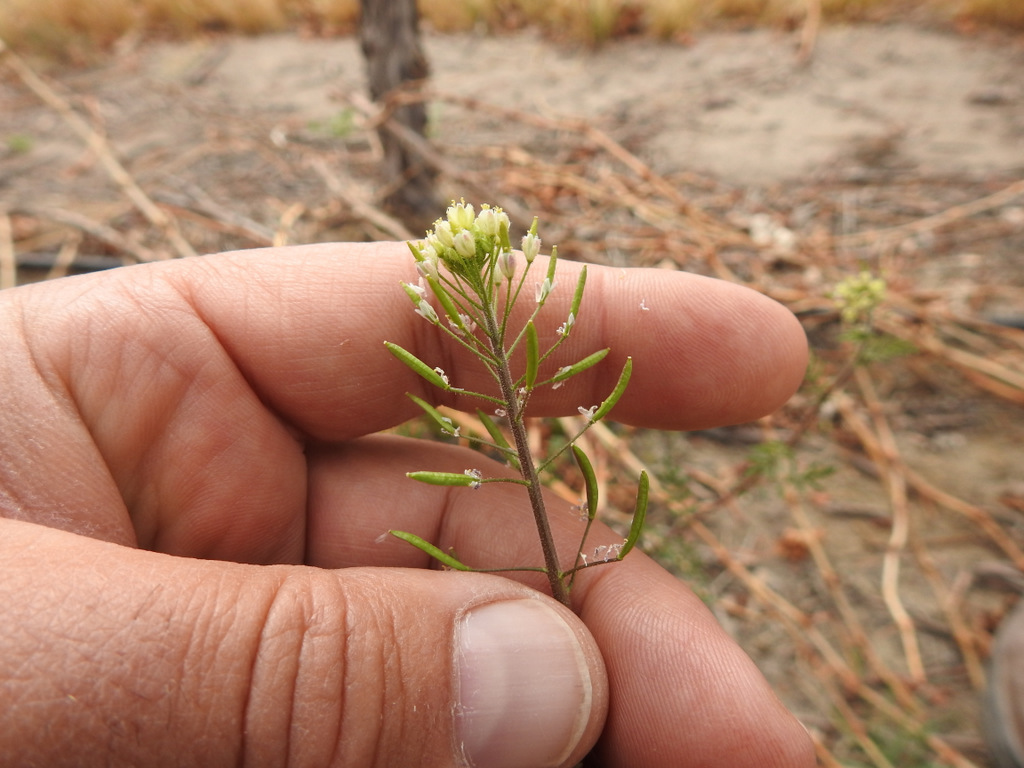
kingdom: Plantae
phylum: Tracheophyta
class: Magnoliopsida
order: Brassicales
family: Brassicaceae
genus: Descurainia
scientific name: Descurainia erodiifolia
